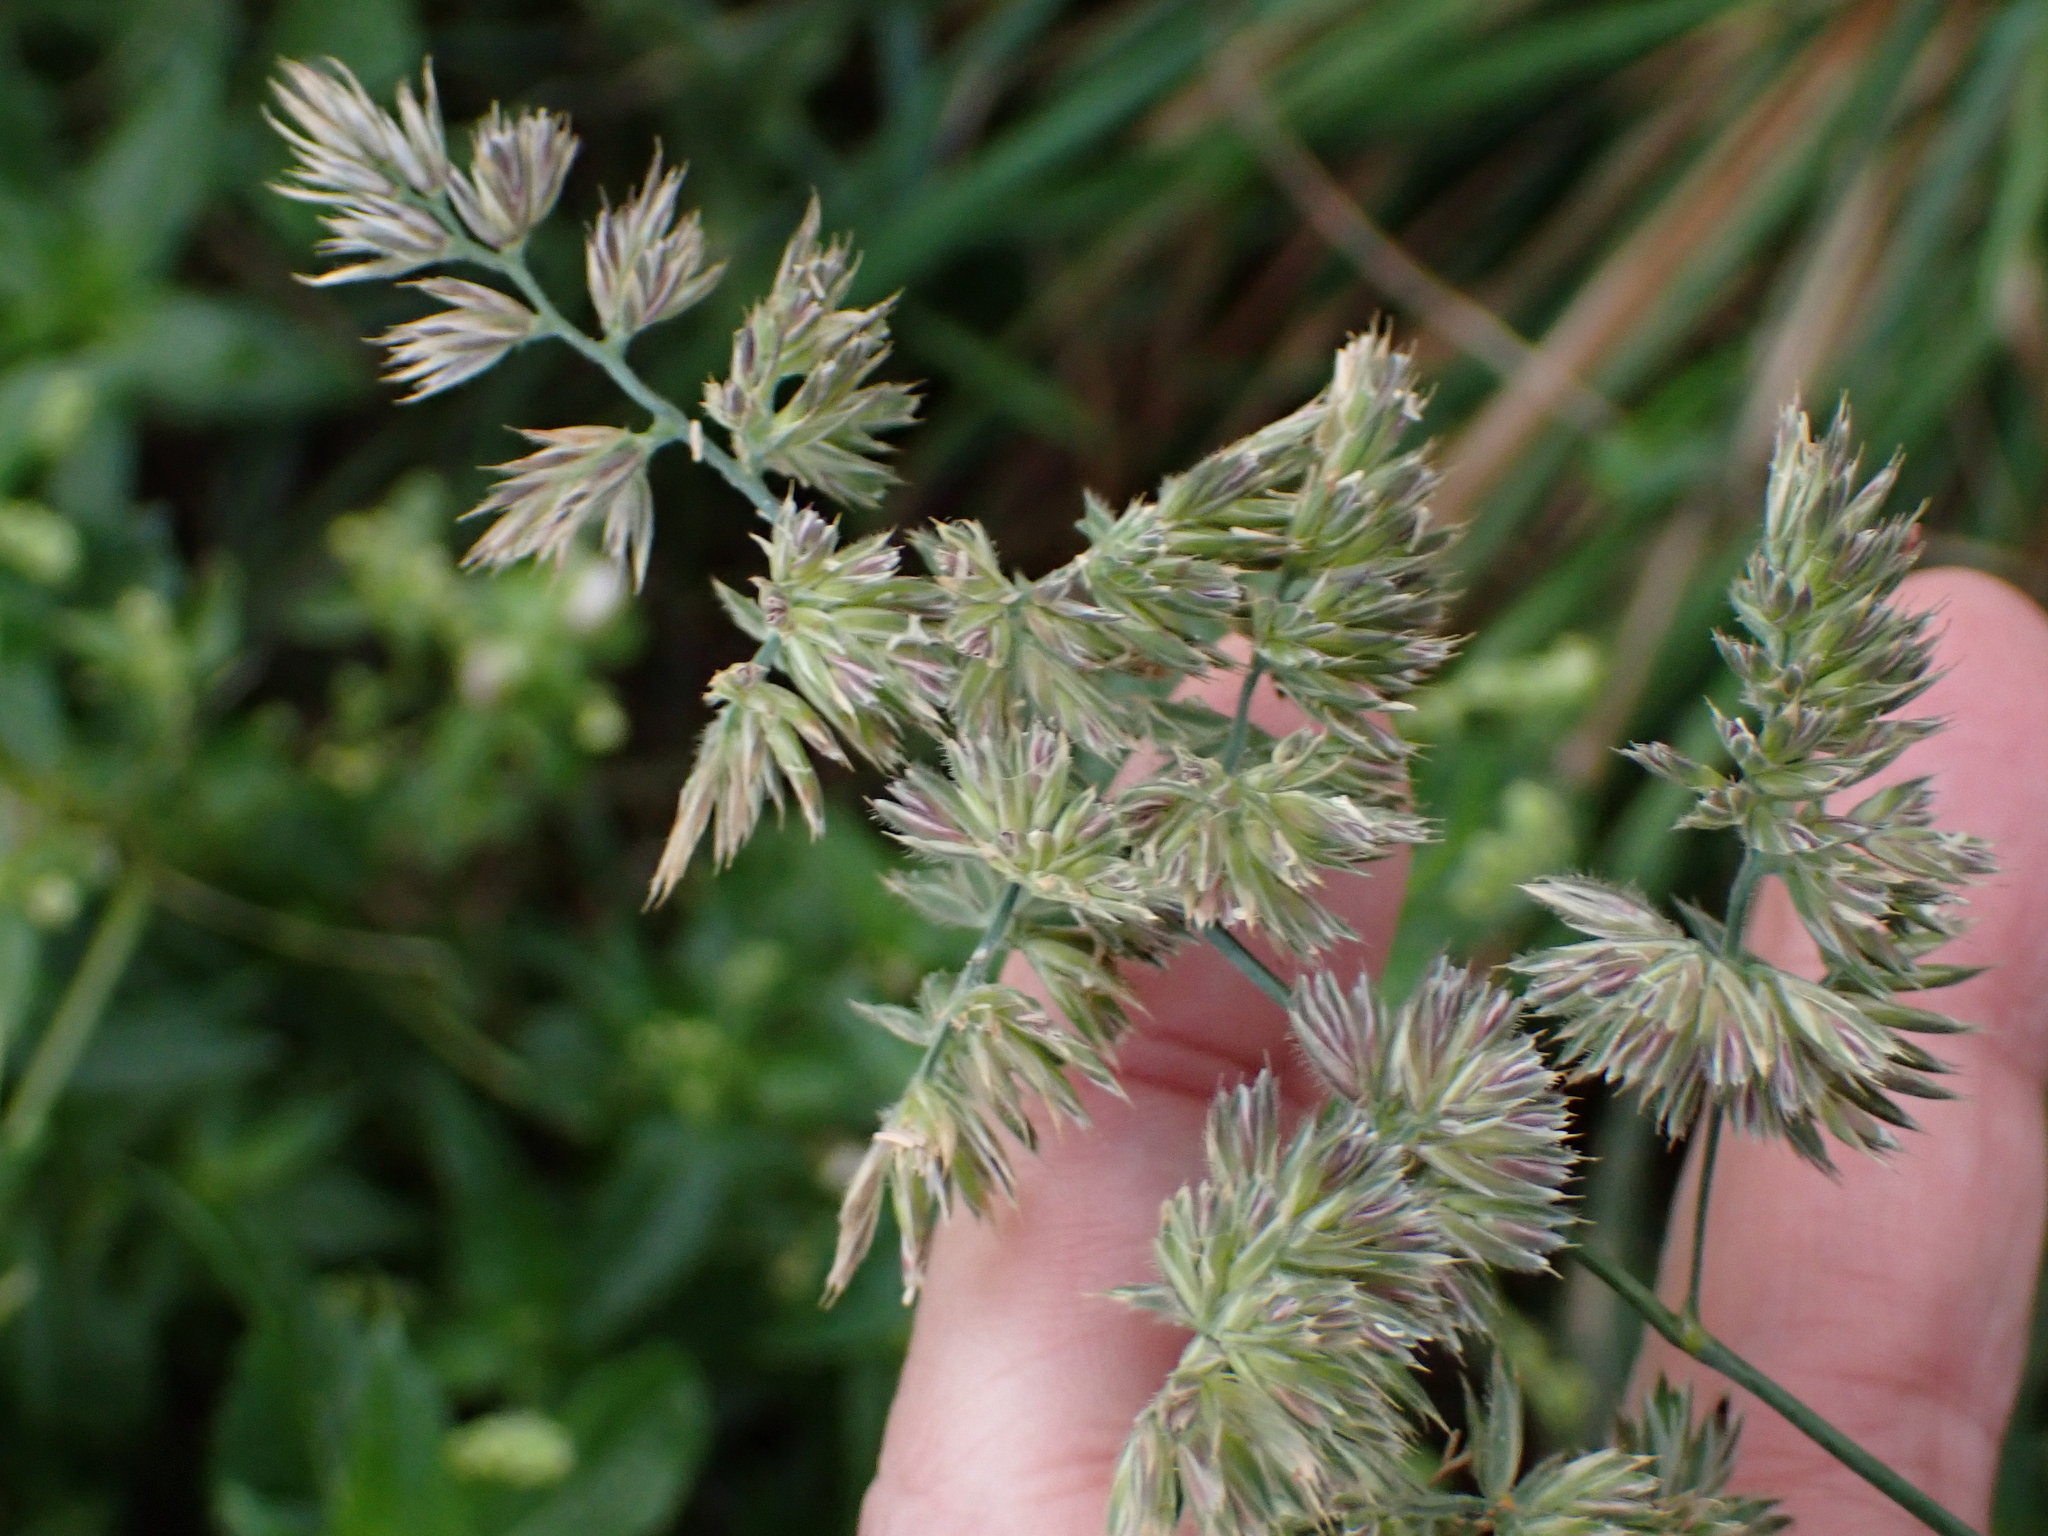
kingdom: Plantae
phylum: Tracheophyta
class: Liliopsida
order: Poales
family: Poaceae
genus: Dactylis
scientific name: Dactylis glomerata
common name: Orchardgrass
